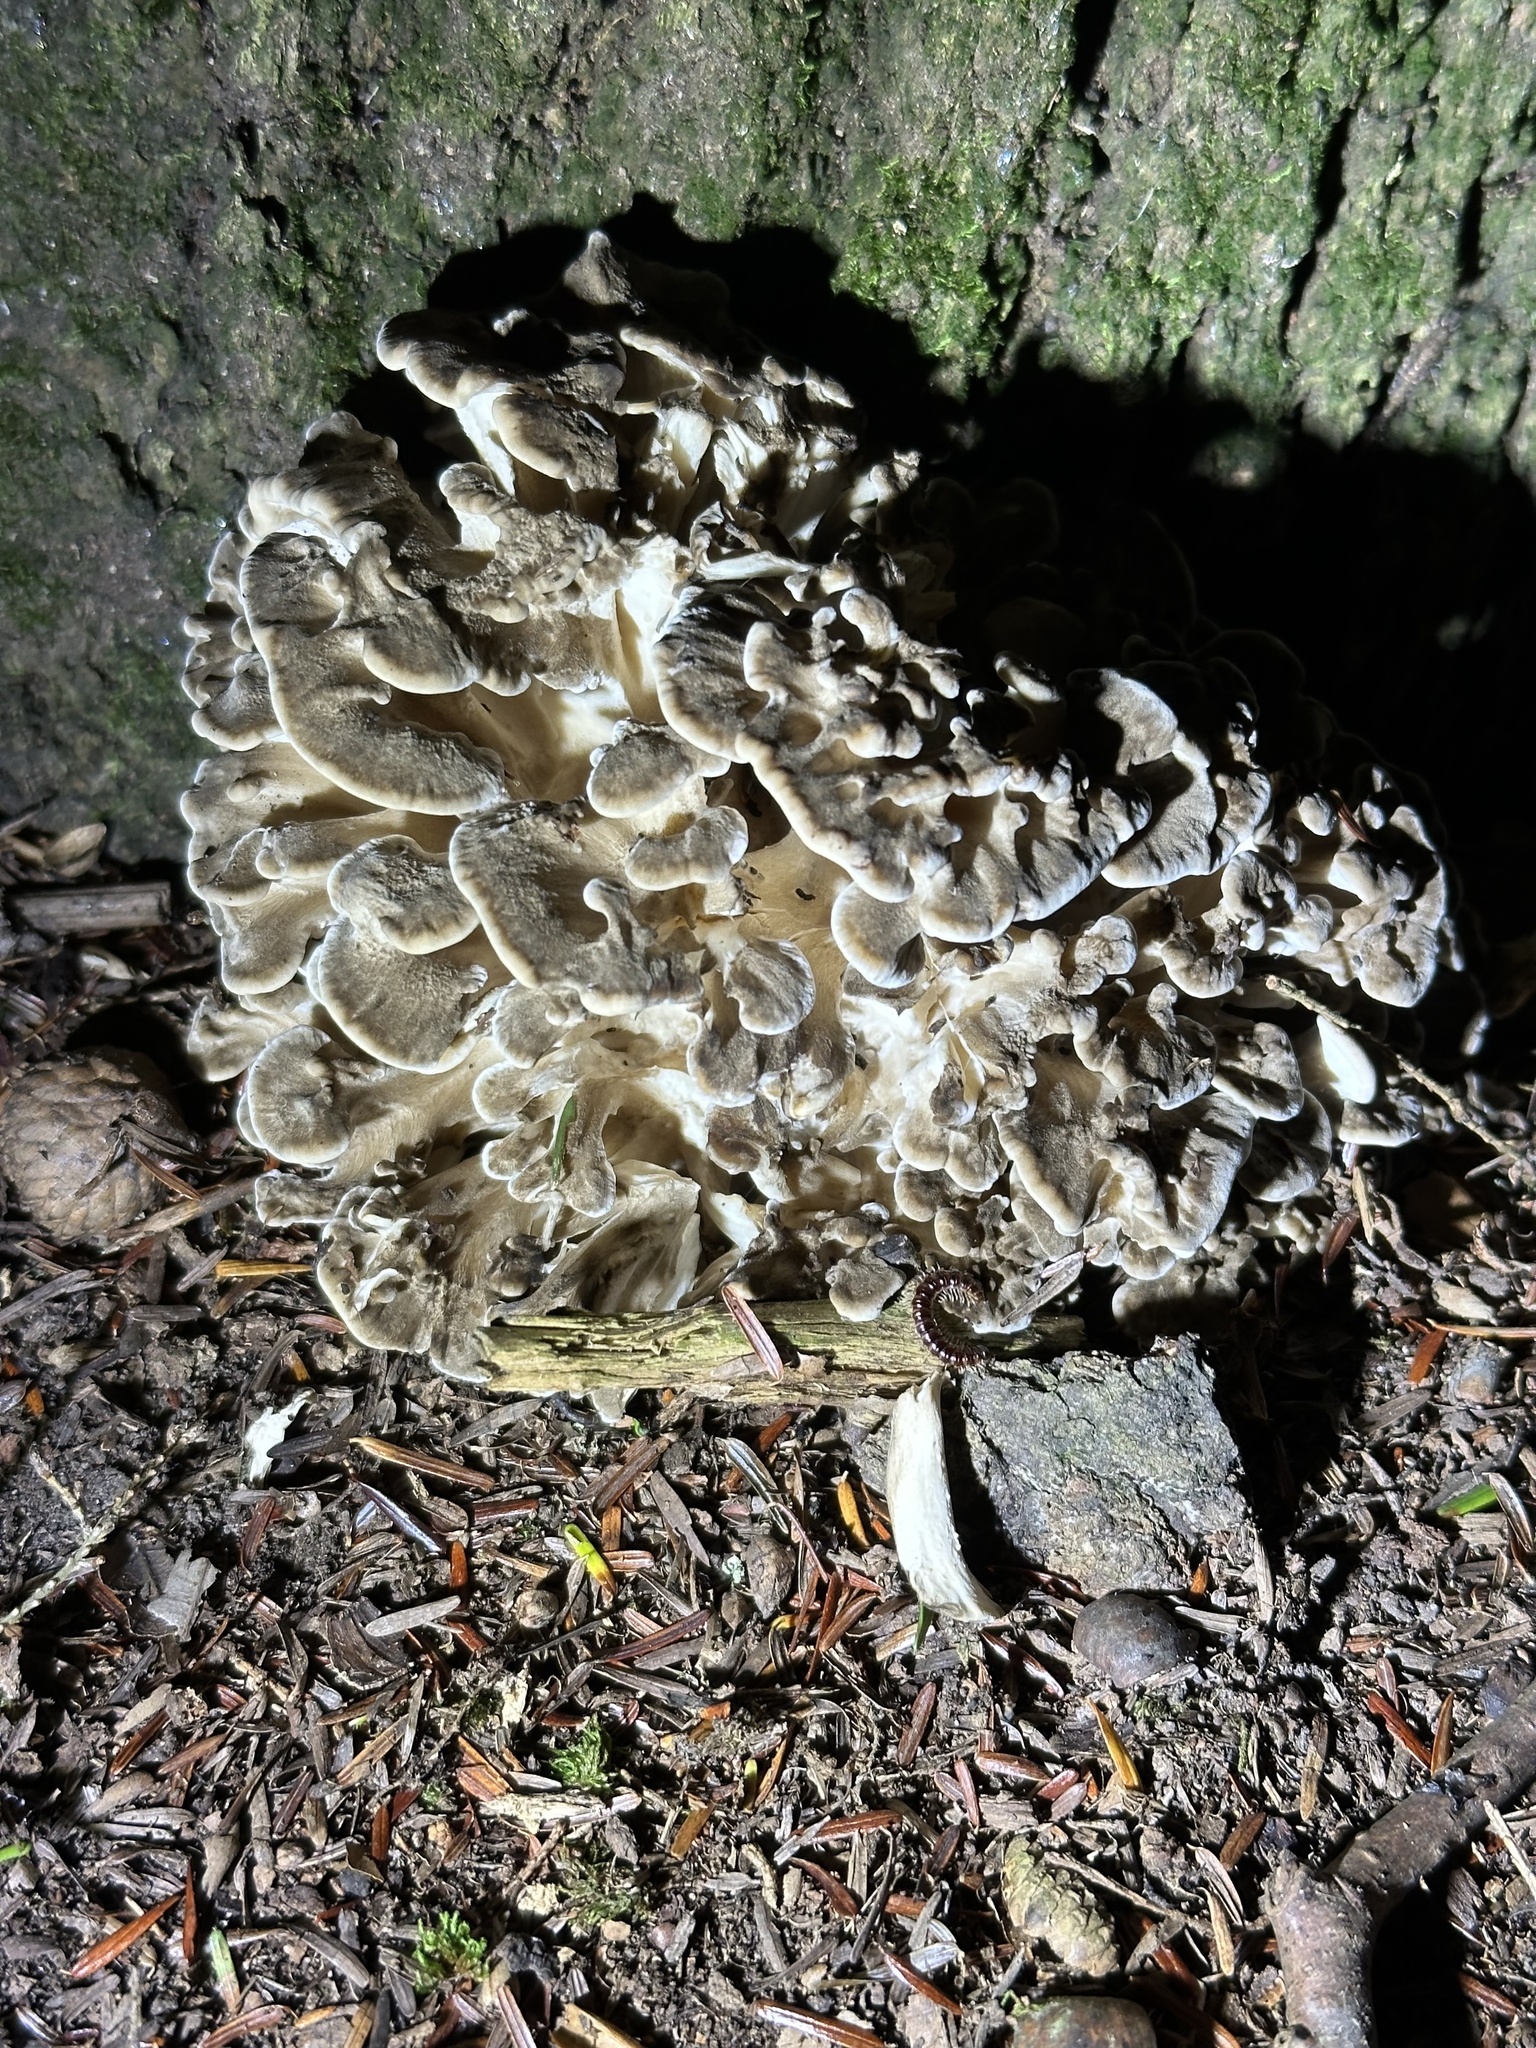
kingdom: Fungi
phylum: Basidiomycota
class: Agaricomycetes
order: Polyporales
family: Grifolaceae
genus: Grifola
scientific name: Grifola frondosa
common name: Hen of the woods
